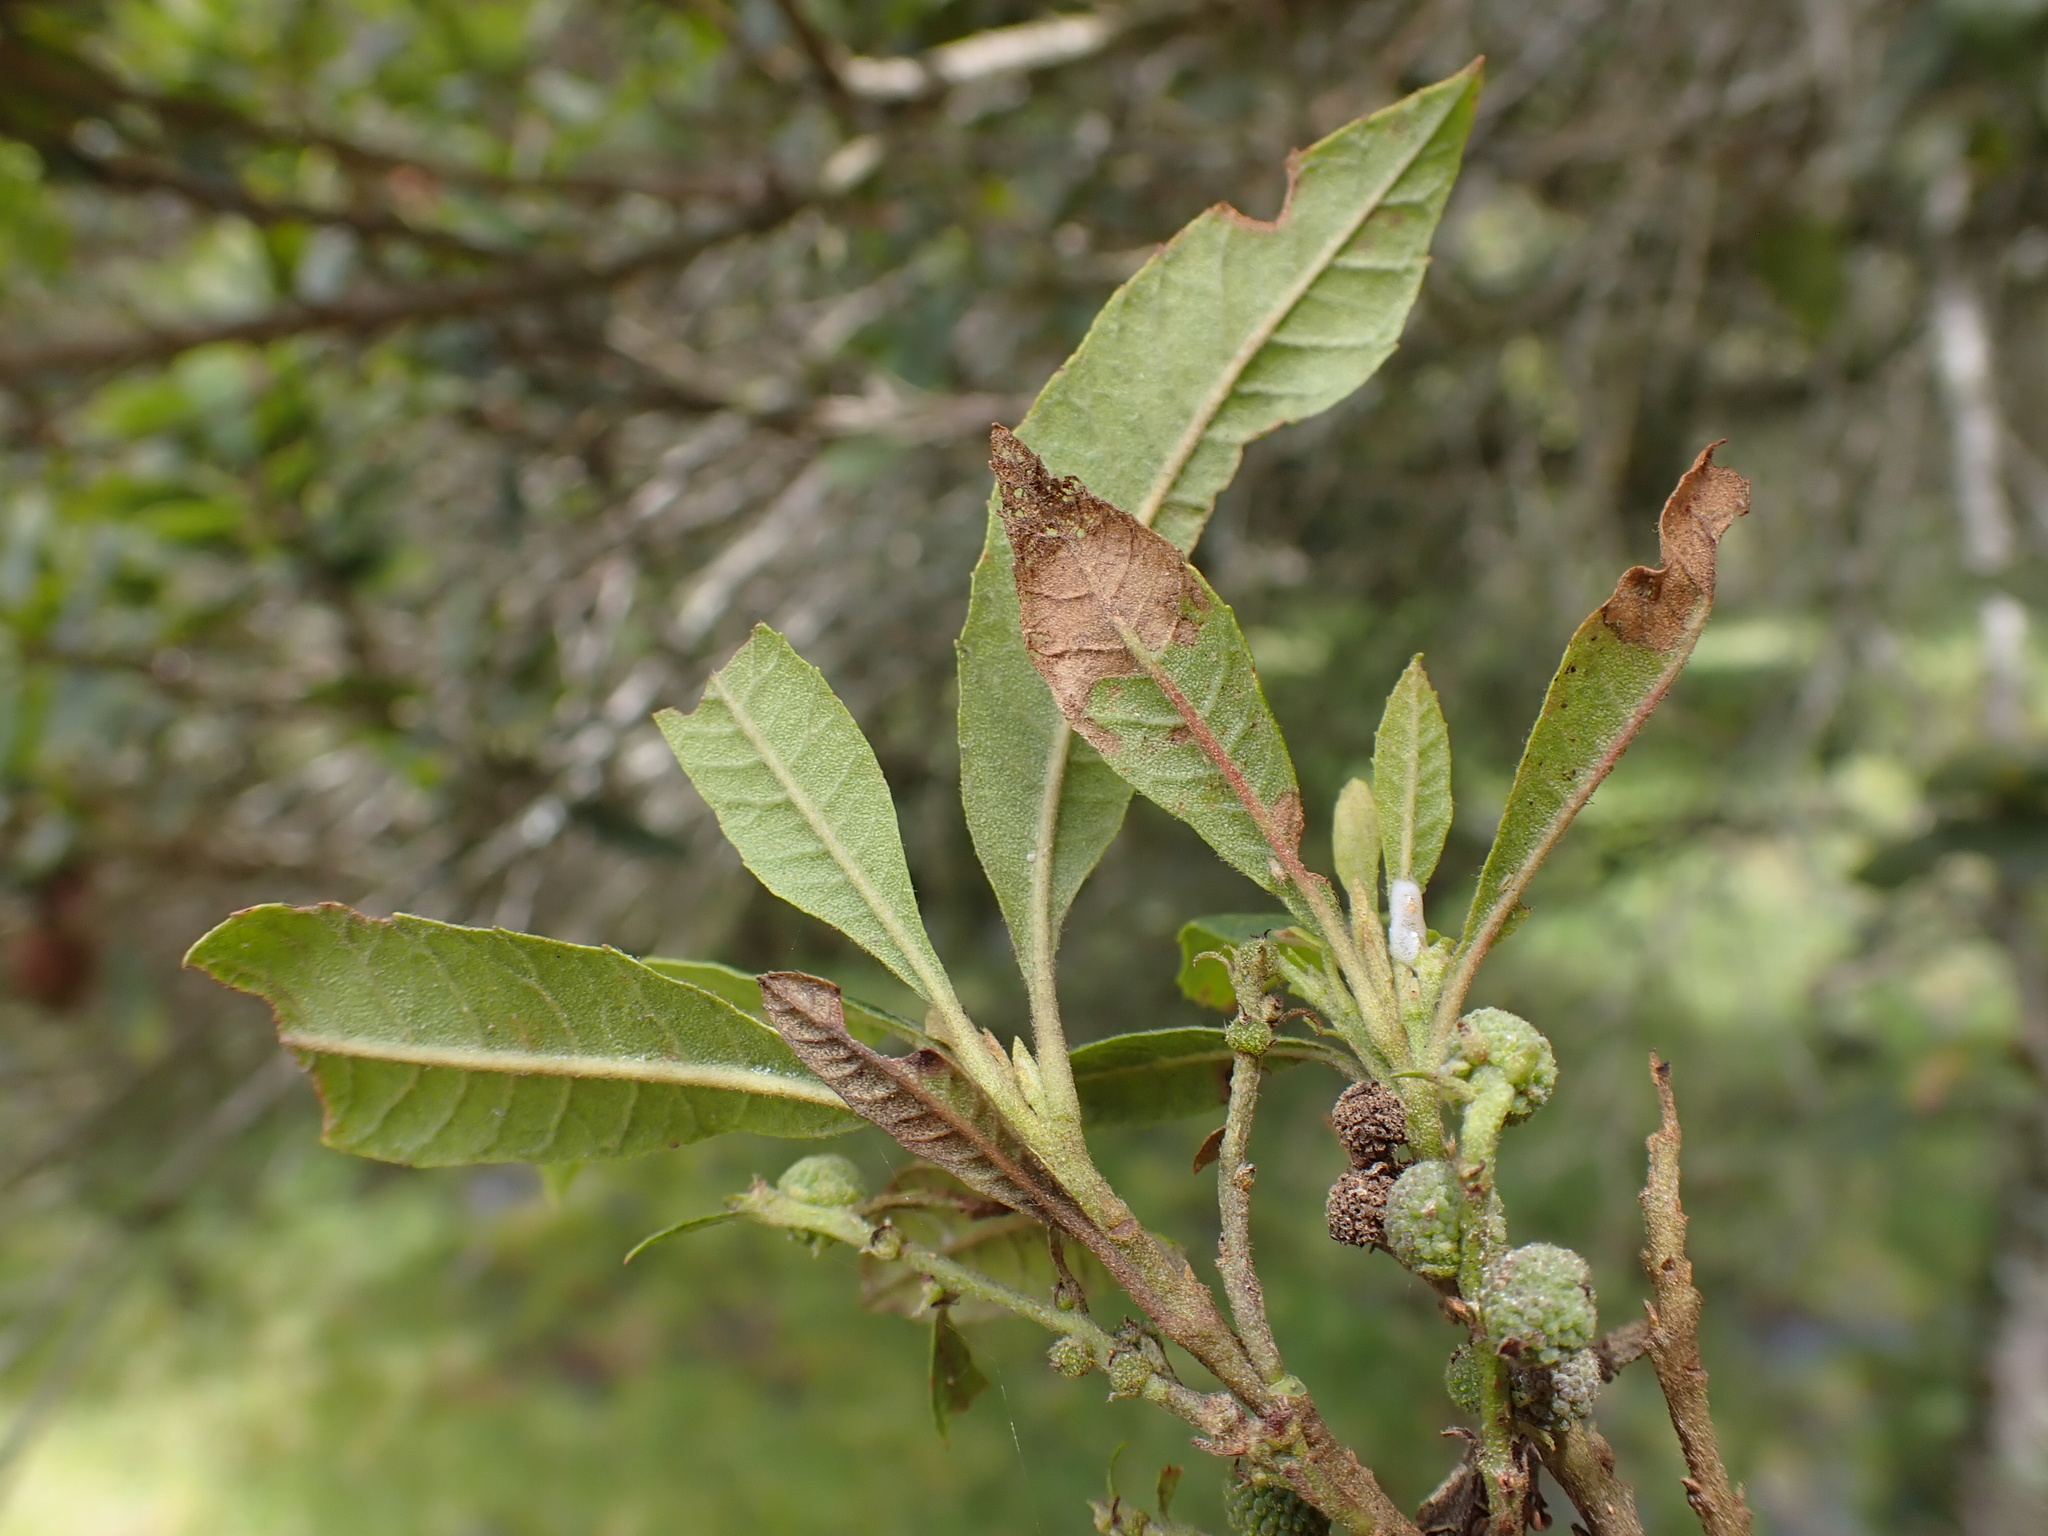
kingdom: Plantae
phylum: Tracheophyta
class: Magnoliopsida
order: Fagales
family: Myricaceae
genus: Morella
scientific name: Morella pubescens
